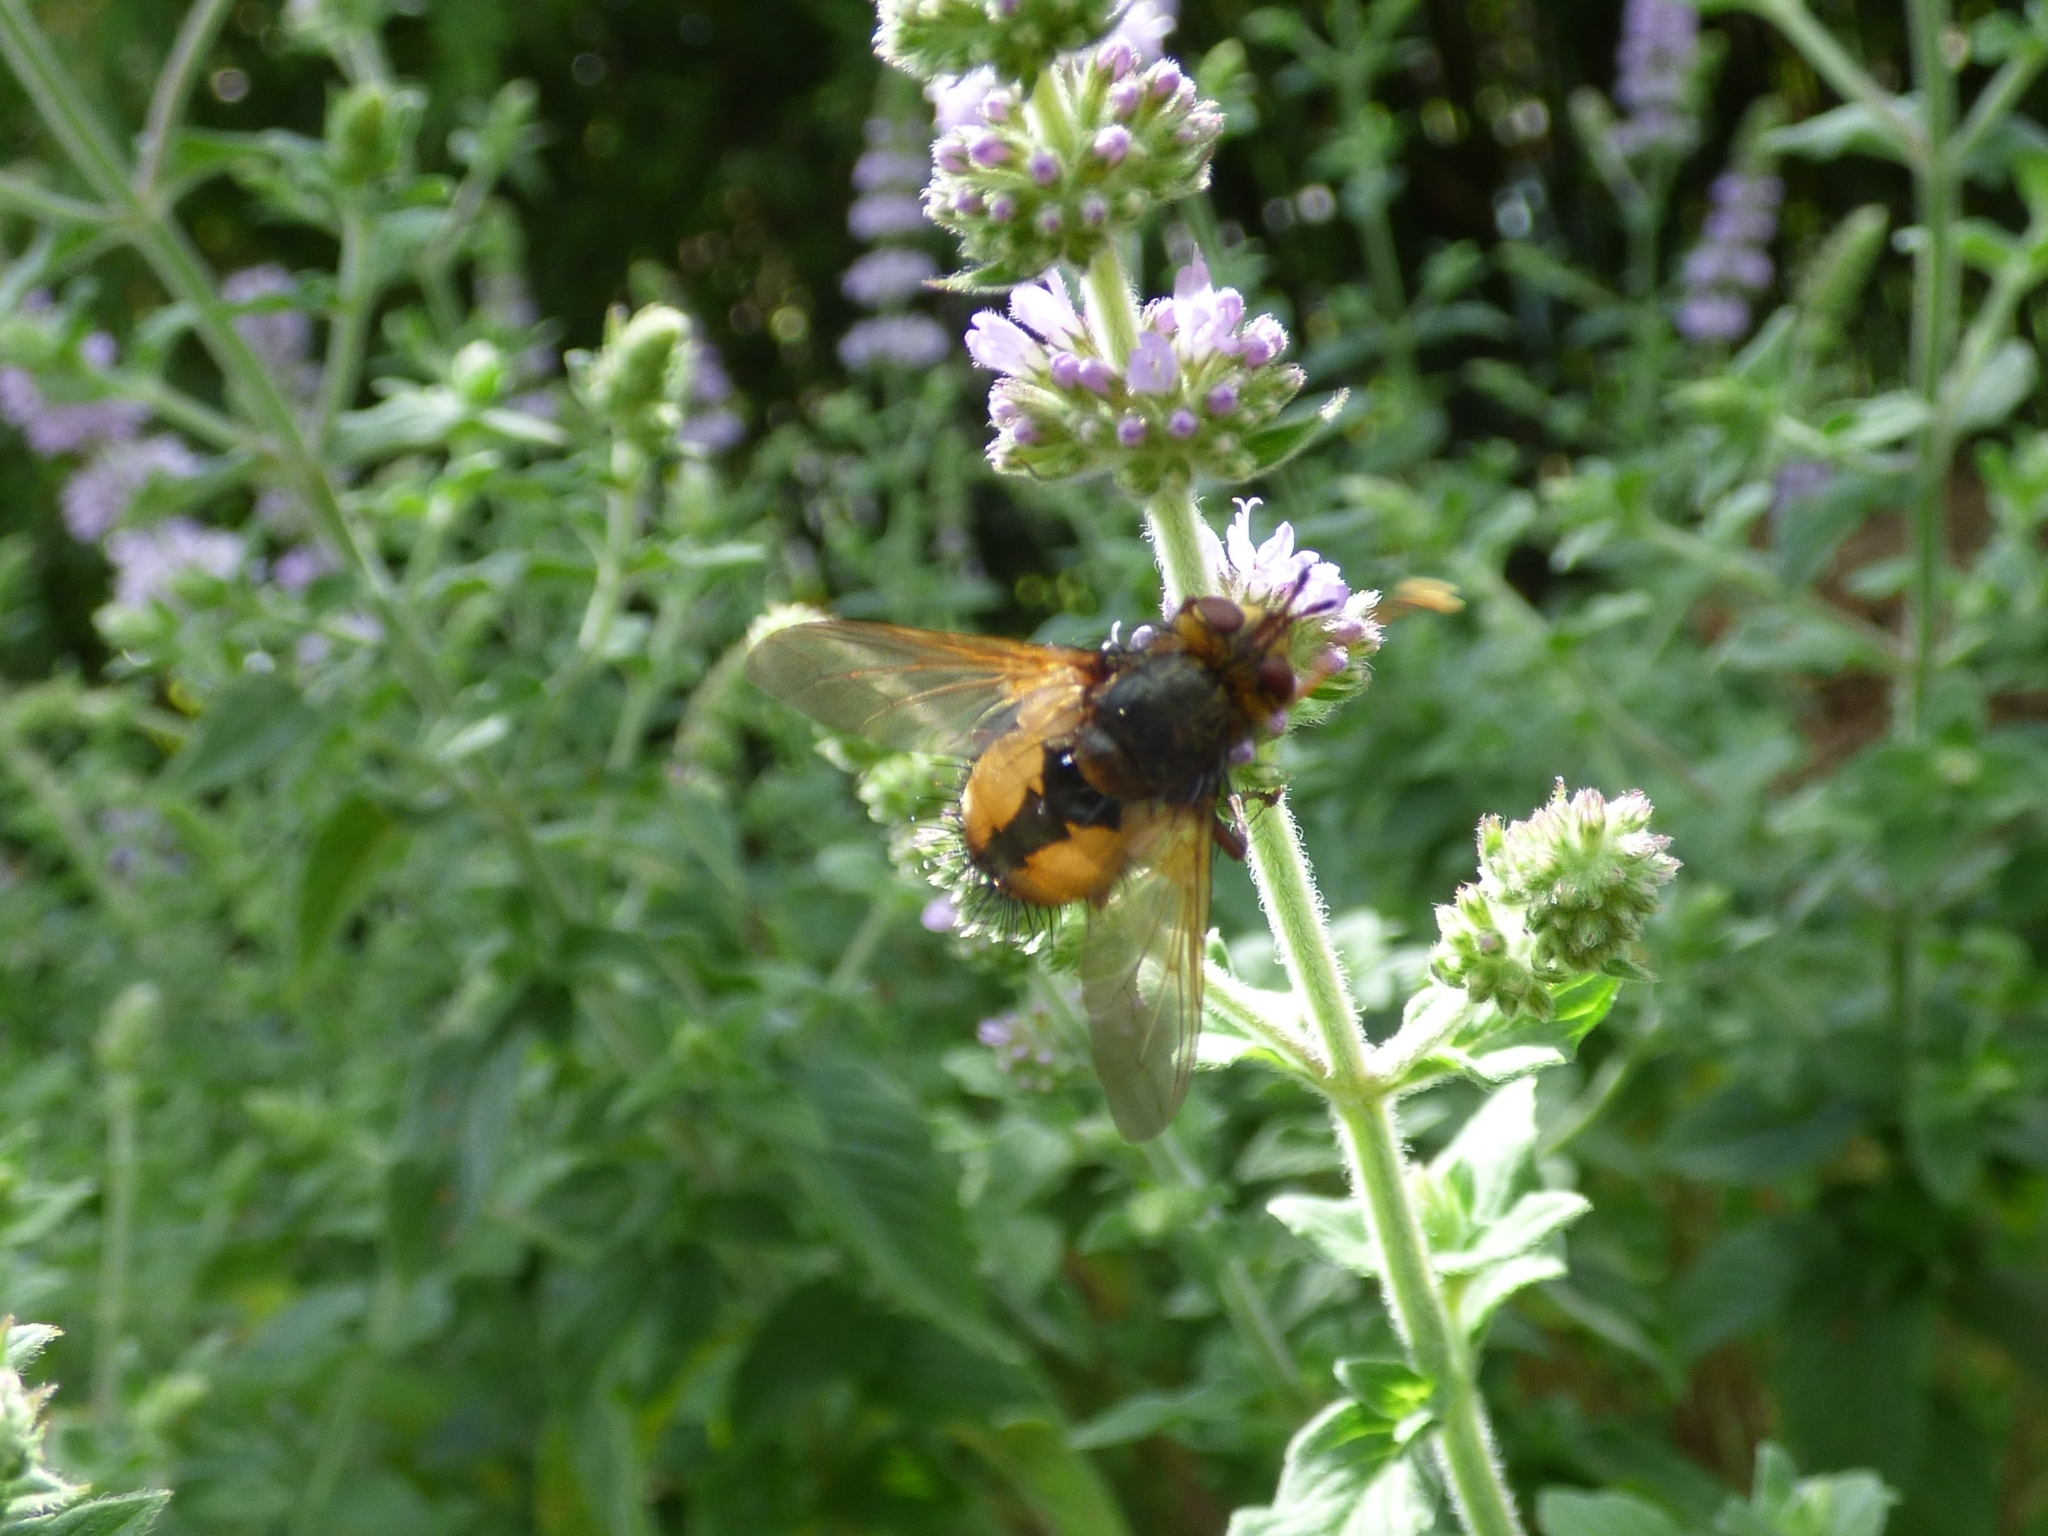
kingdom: Animalia
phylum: Arthropoda
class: Insecta
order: Diptera
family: Tachinidae
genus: Tachina
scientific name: Tachina fera
